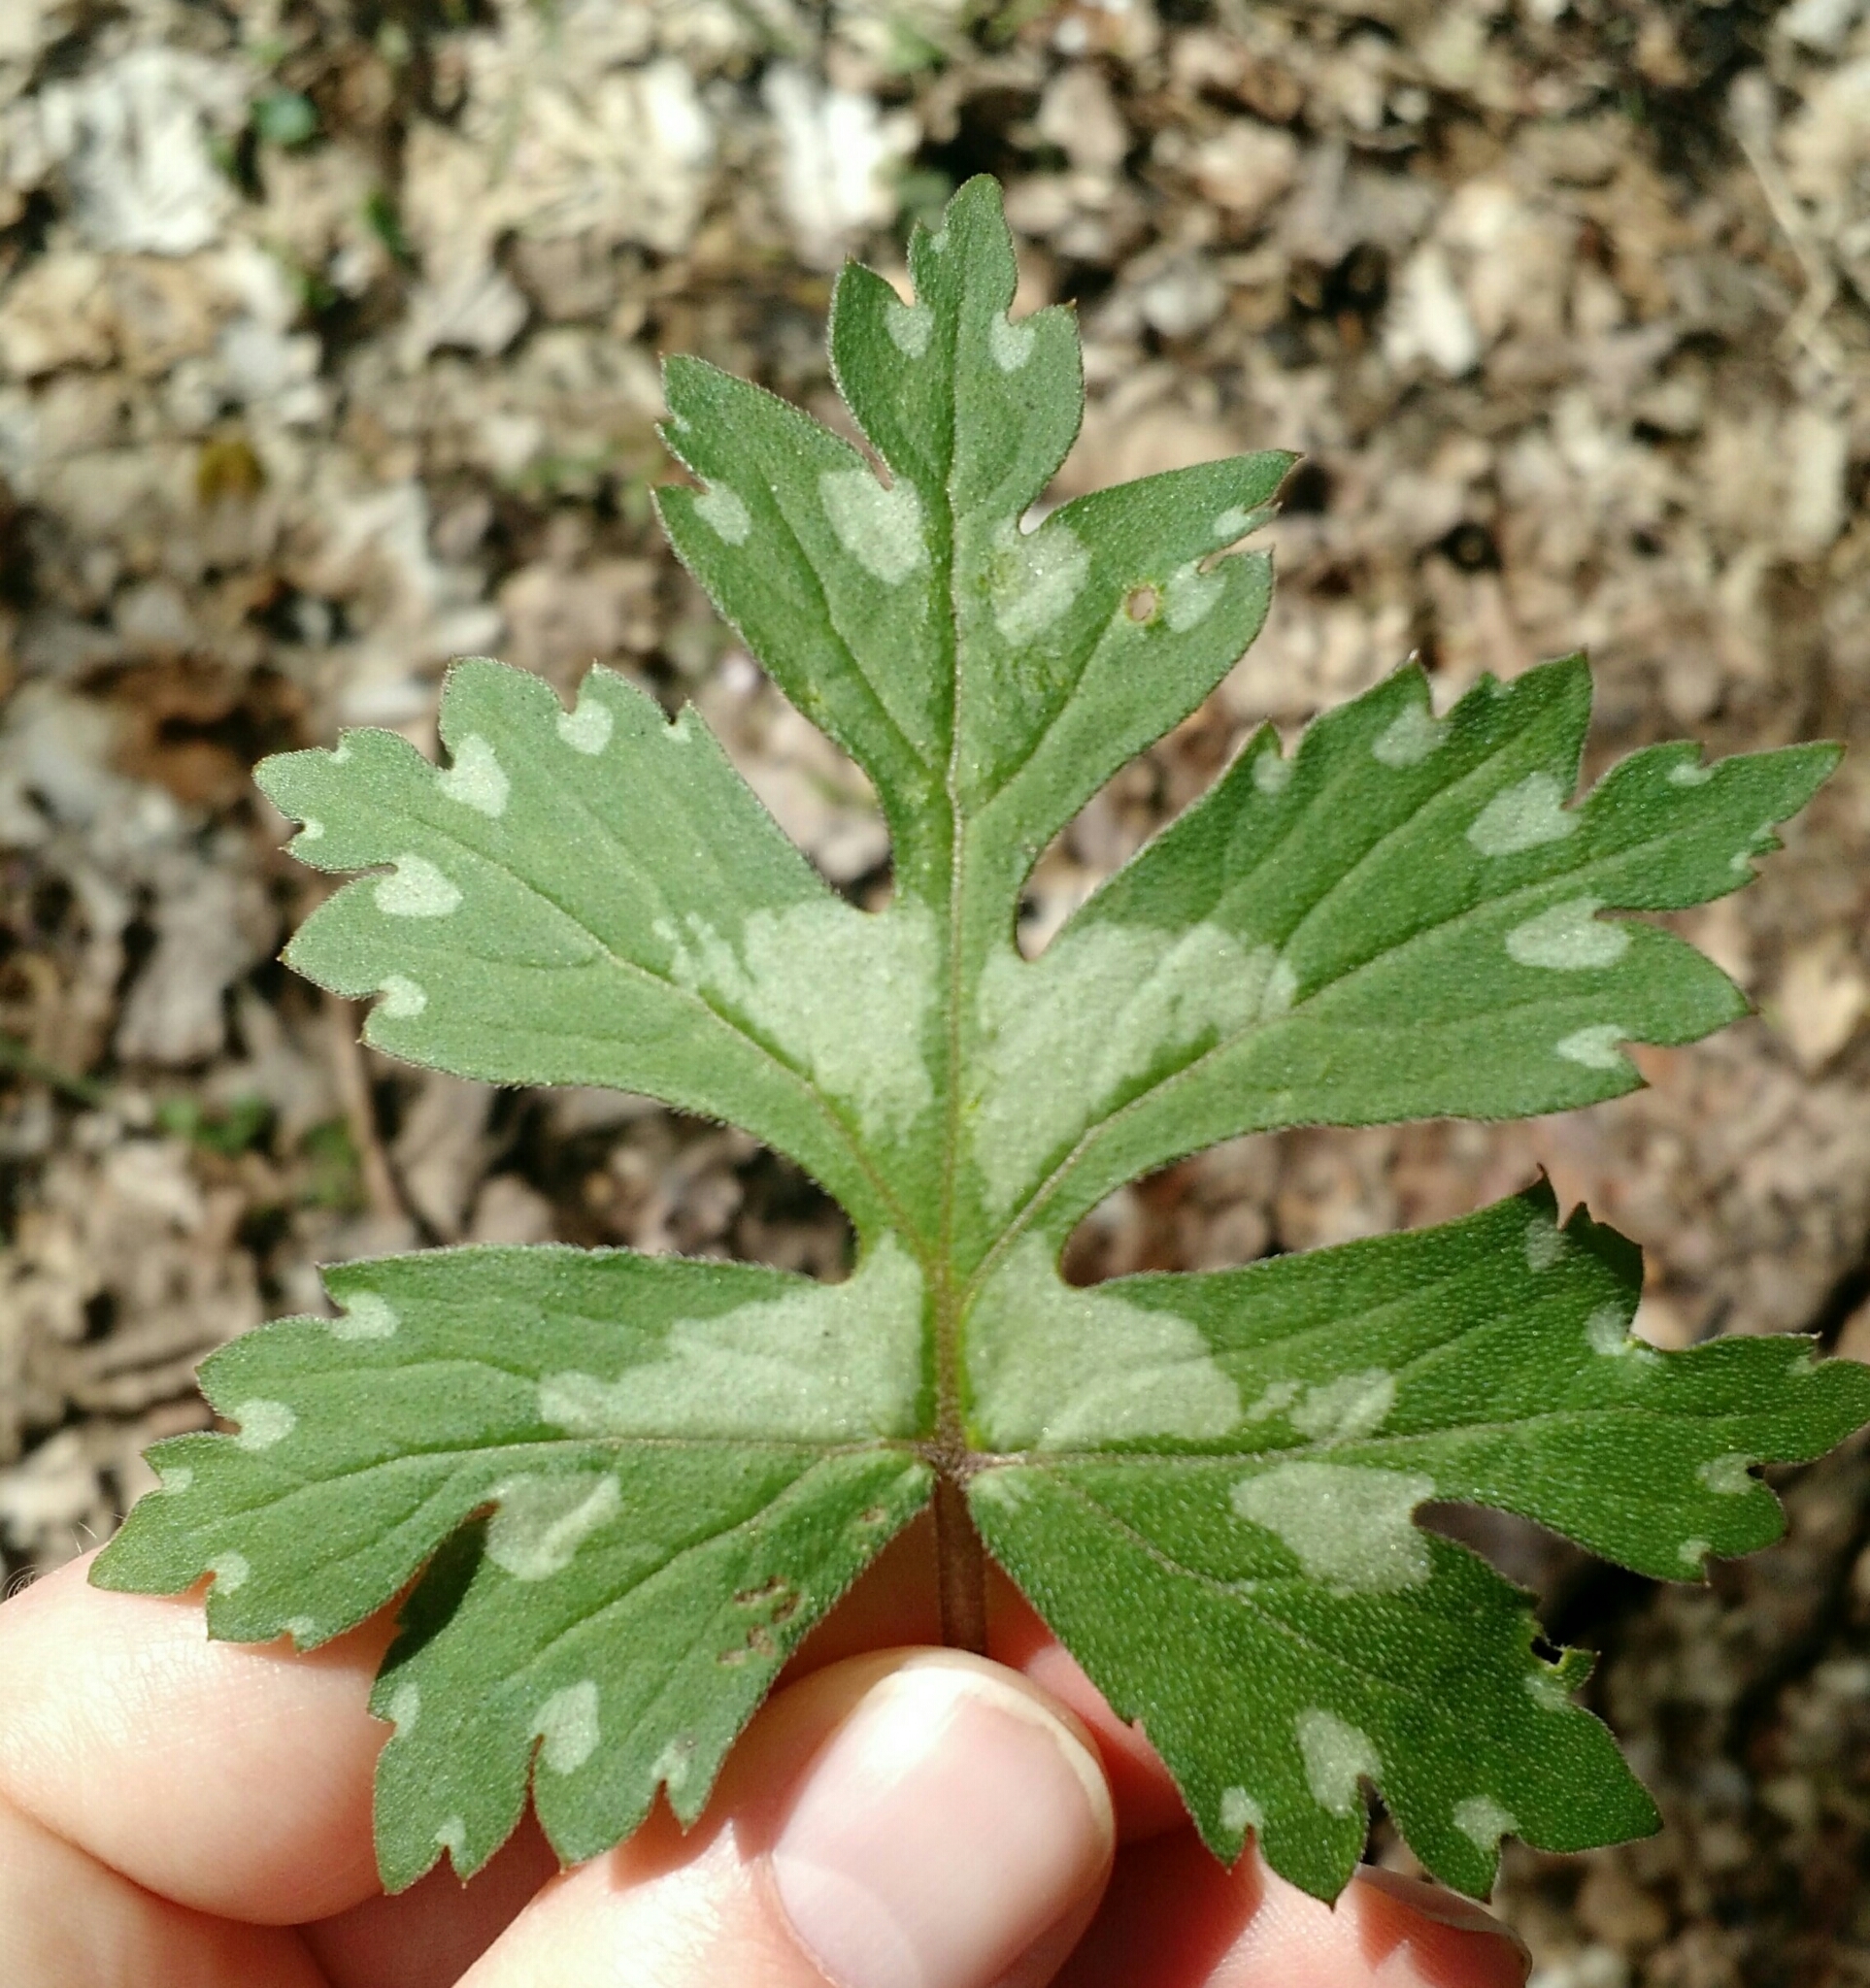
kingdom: Plantae
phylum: Tracheophyta
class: Magnoliopsida
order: Boraginales
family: Hydrophyllaceae
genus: Hydrophyllum
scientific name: Hydrophyllum canadense
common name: Canada waterleaf
